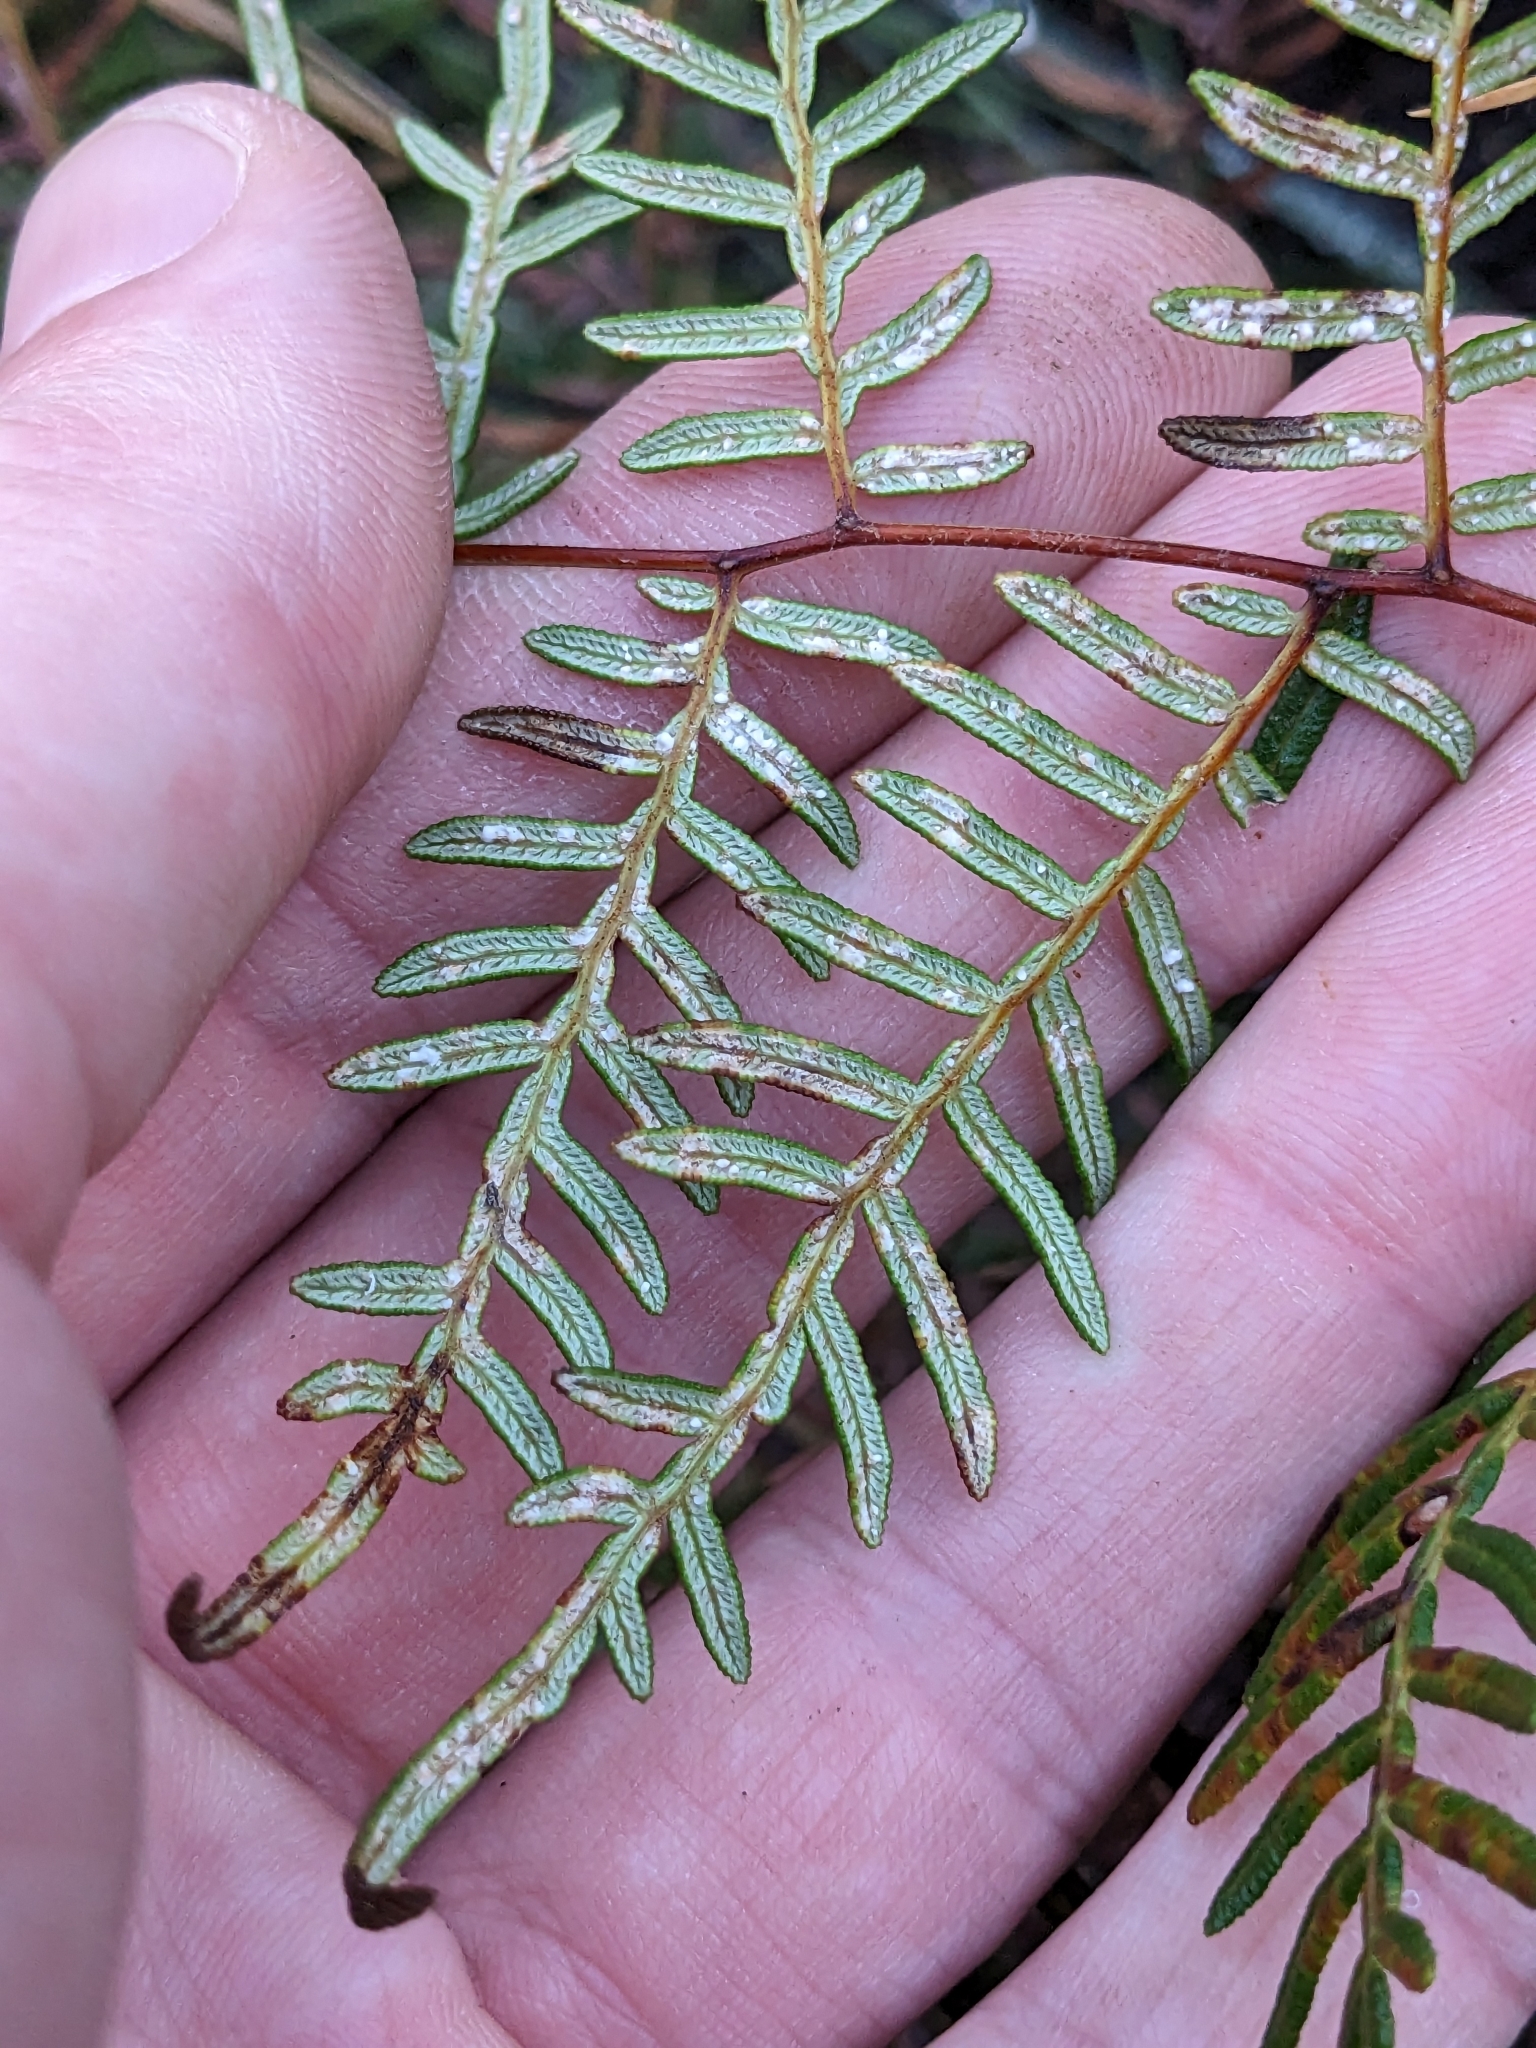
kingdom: Plantae
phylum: Tracheophyta
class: Polypodiopsida
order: Polypodiales
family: Dennstaedtiaceae
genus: Pteridium
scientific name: Pteridium esculentum
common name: Bracken fern
